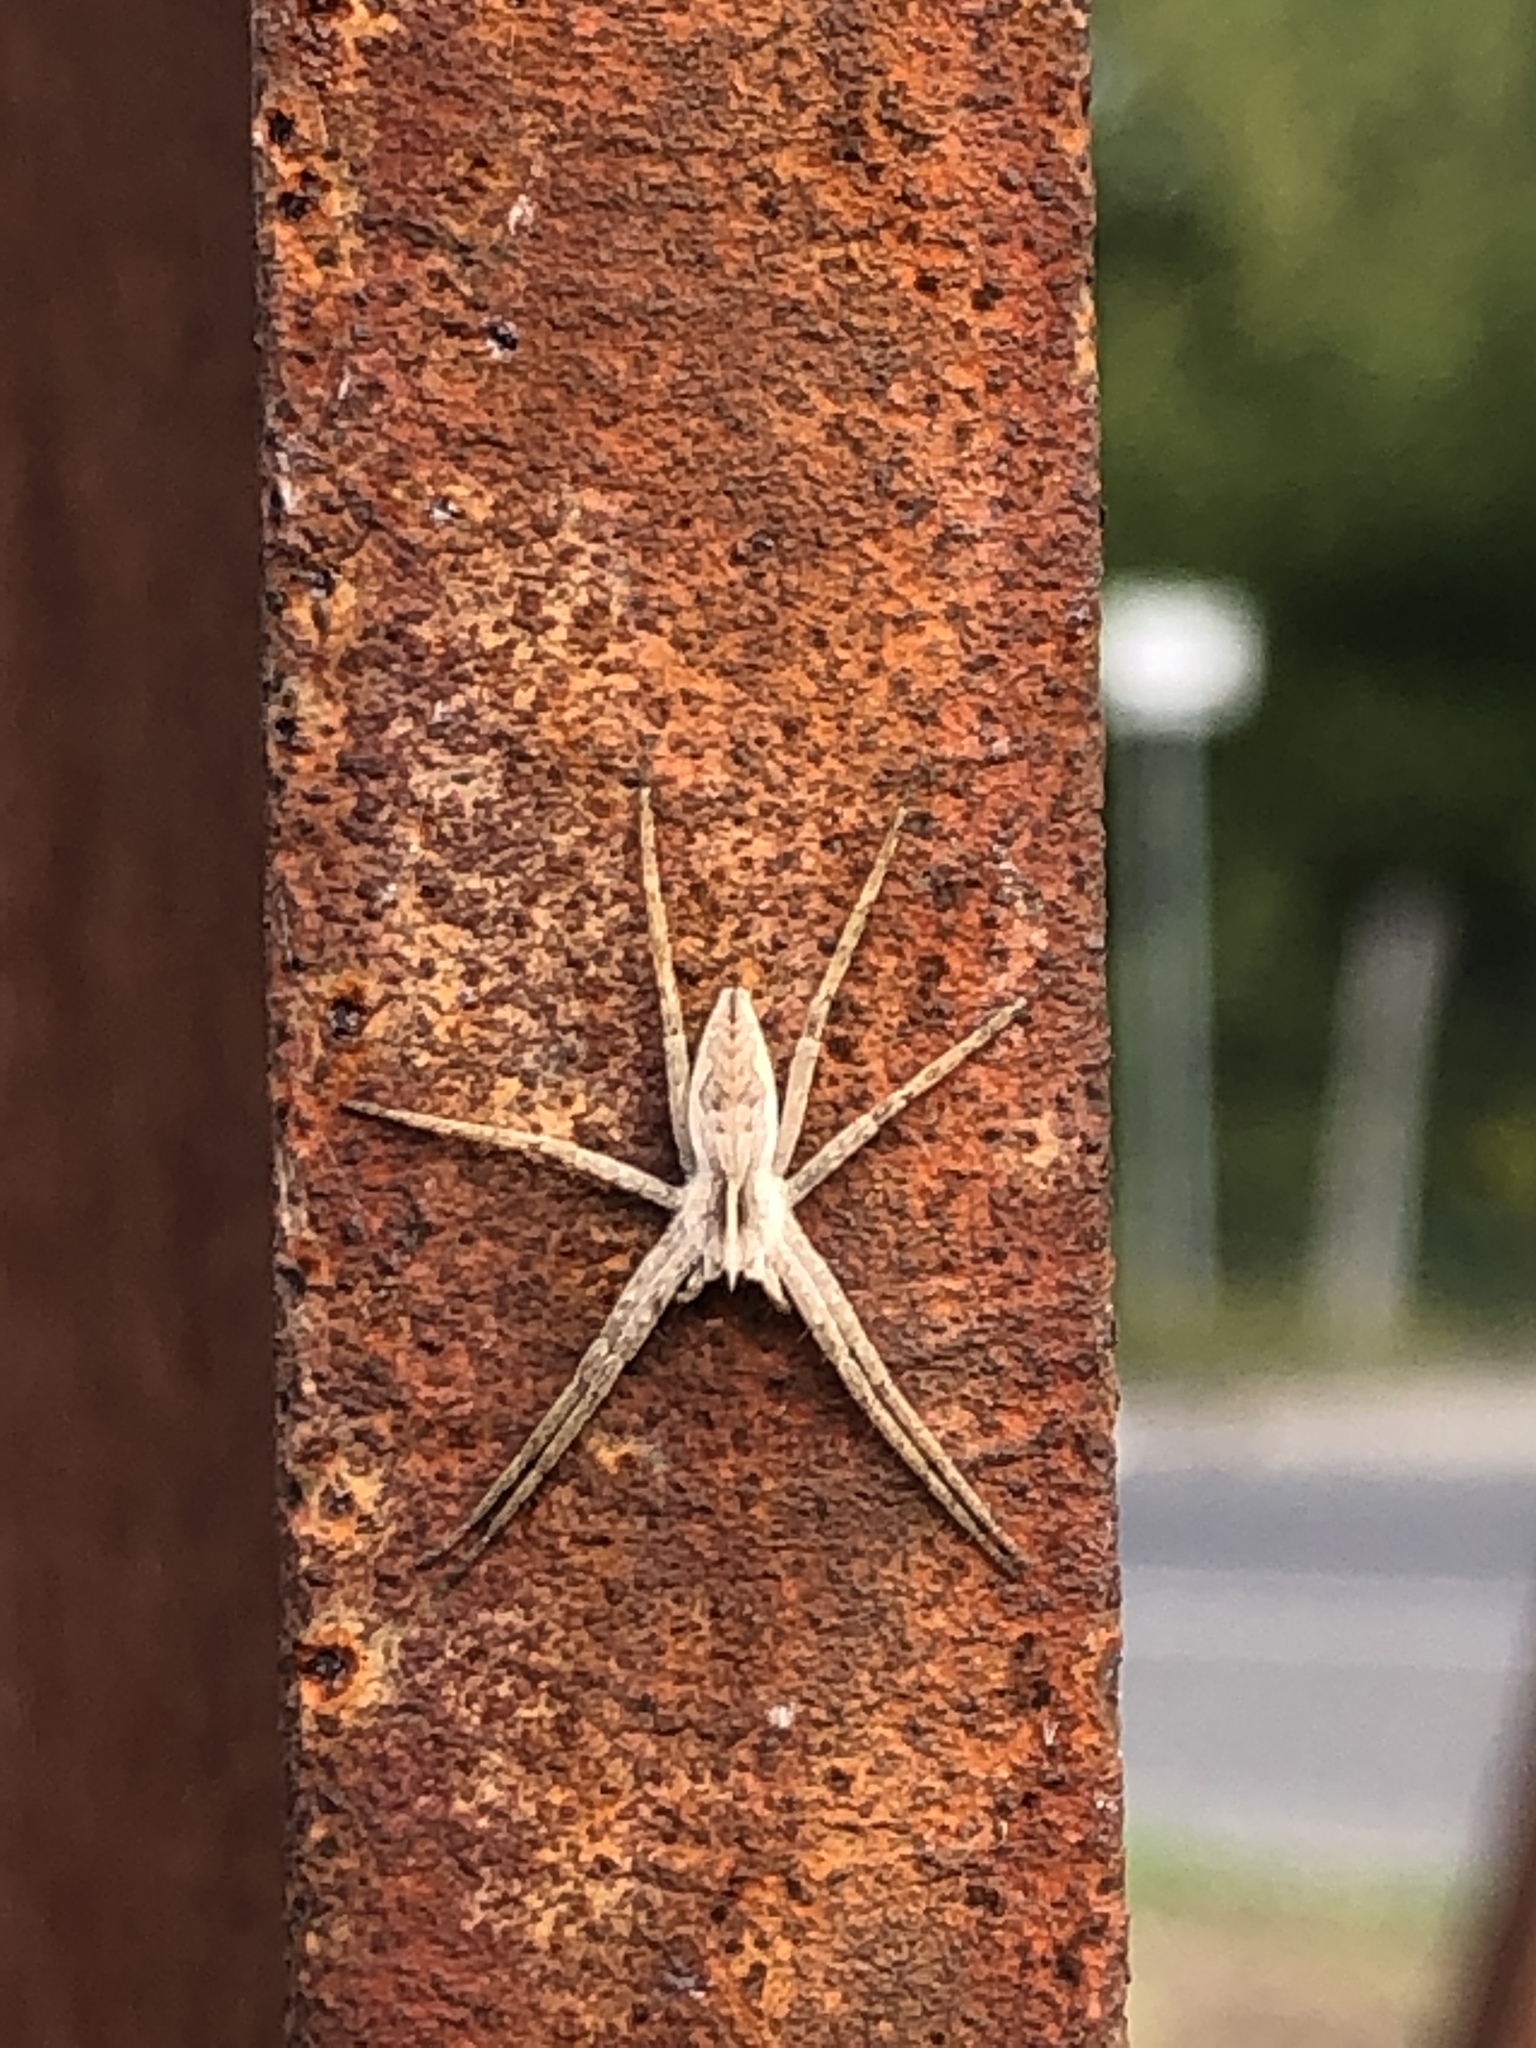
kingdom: Animalia
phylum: Arthropoda
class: Arachnida
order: Araneae
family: Pisauridae
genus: Pisaura
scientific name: Pisaura mirabilis
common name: Tent spider
